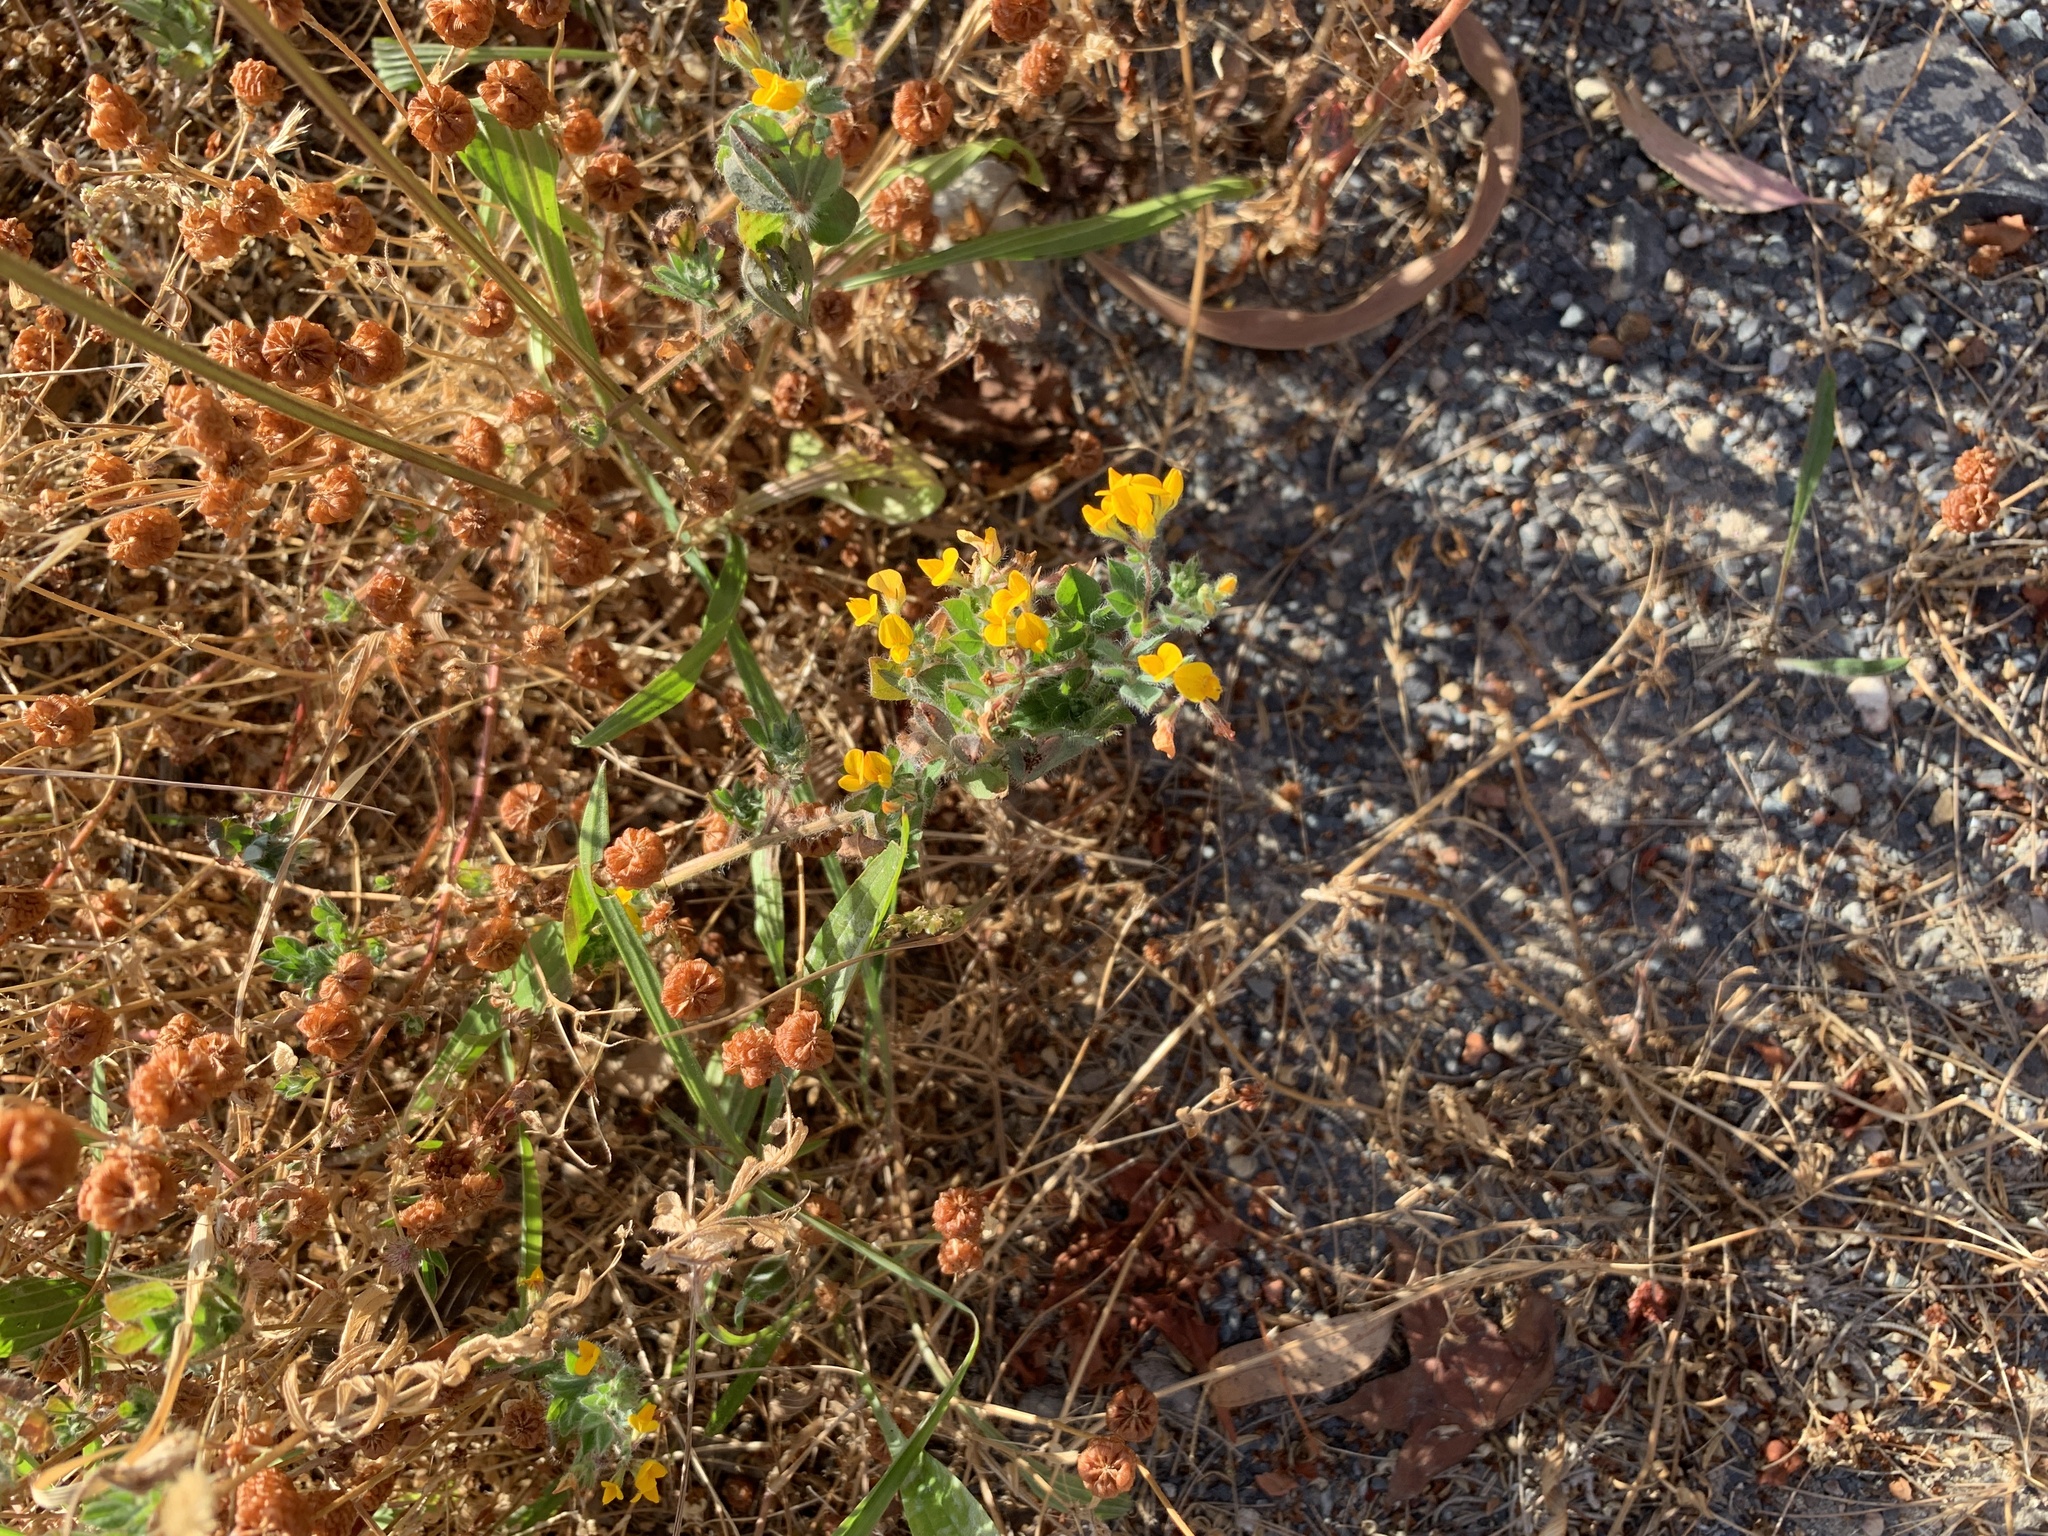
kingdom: Plantae
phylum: Tracheophyta
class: Magnoliopsida
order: Fabales
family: Fabaceae
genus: Lotus
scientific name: Lotus subbiflorus
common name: Hairy bird's-foot trefoil
